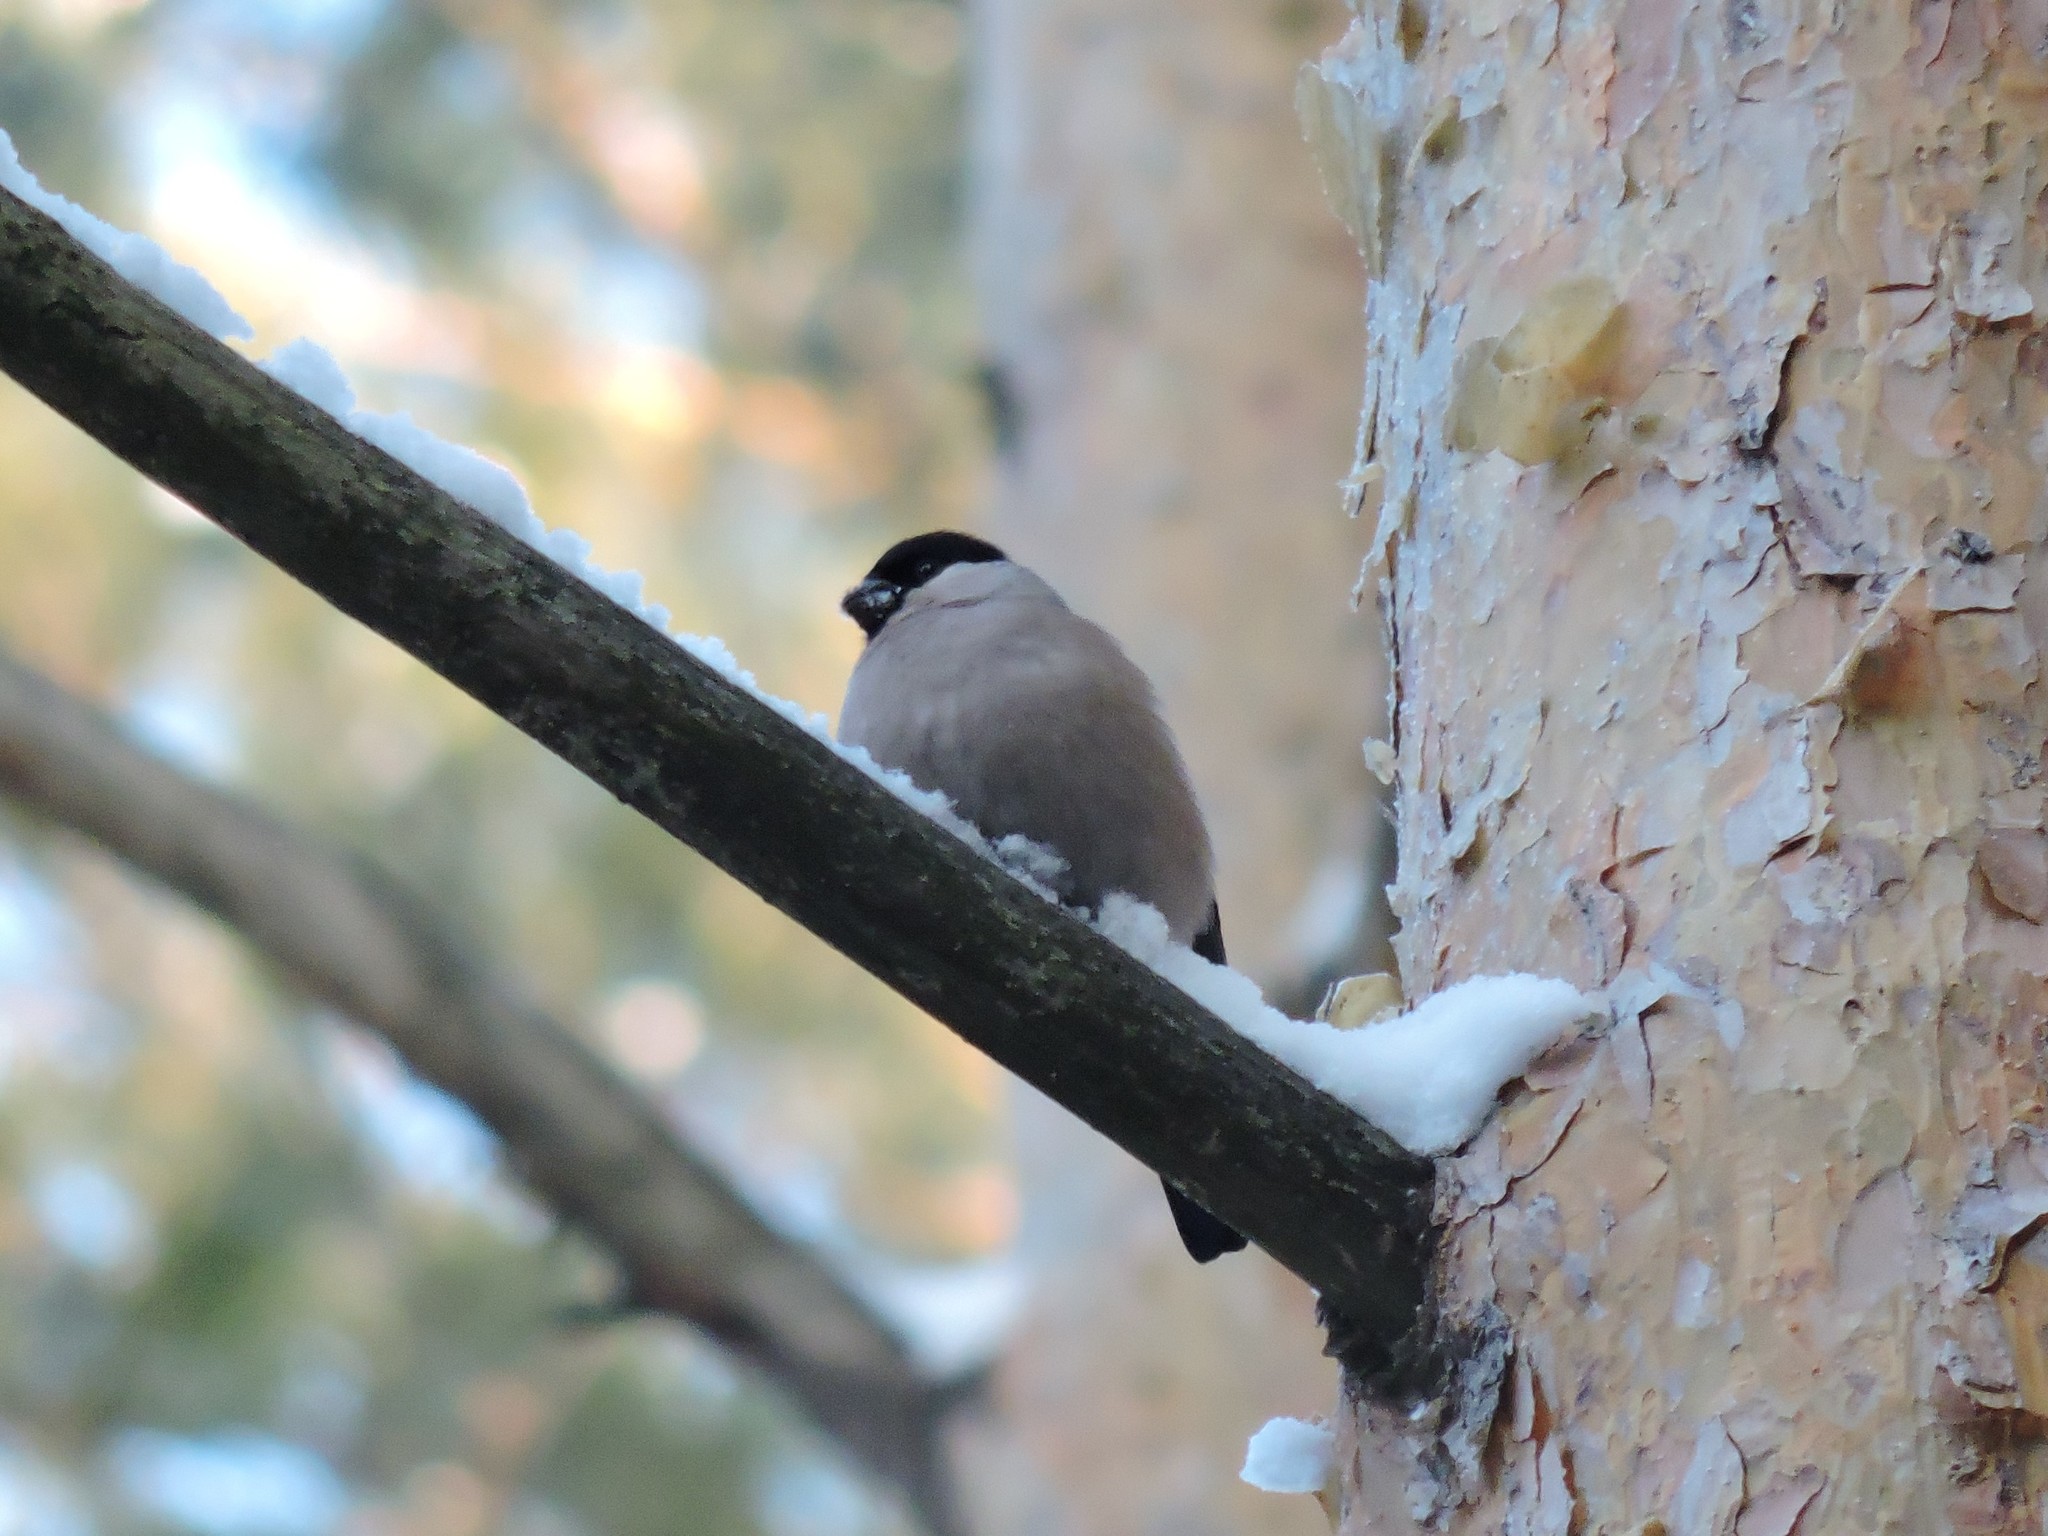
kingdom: Animalia
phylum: Chordata
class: Aves
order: Passeriformes
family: Fringillidae
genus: Pyrrhula
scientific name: Pyrrhula pyrrhula
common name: Eurasian bullfinch
